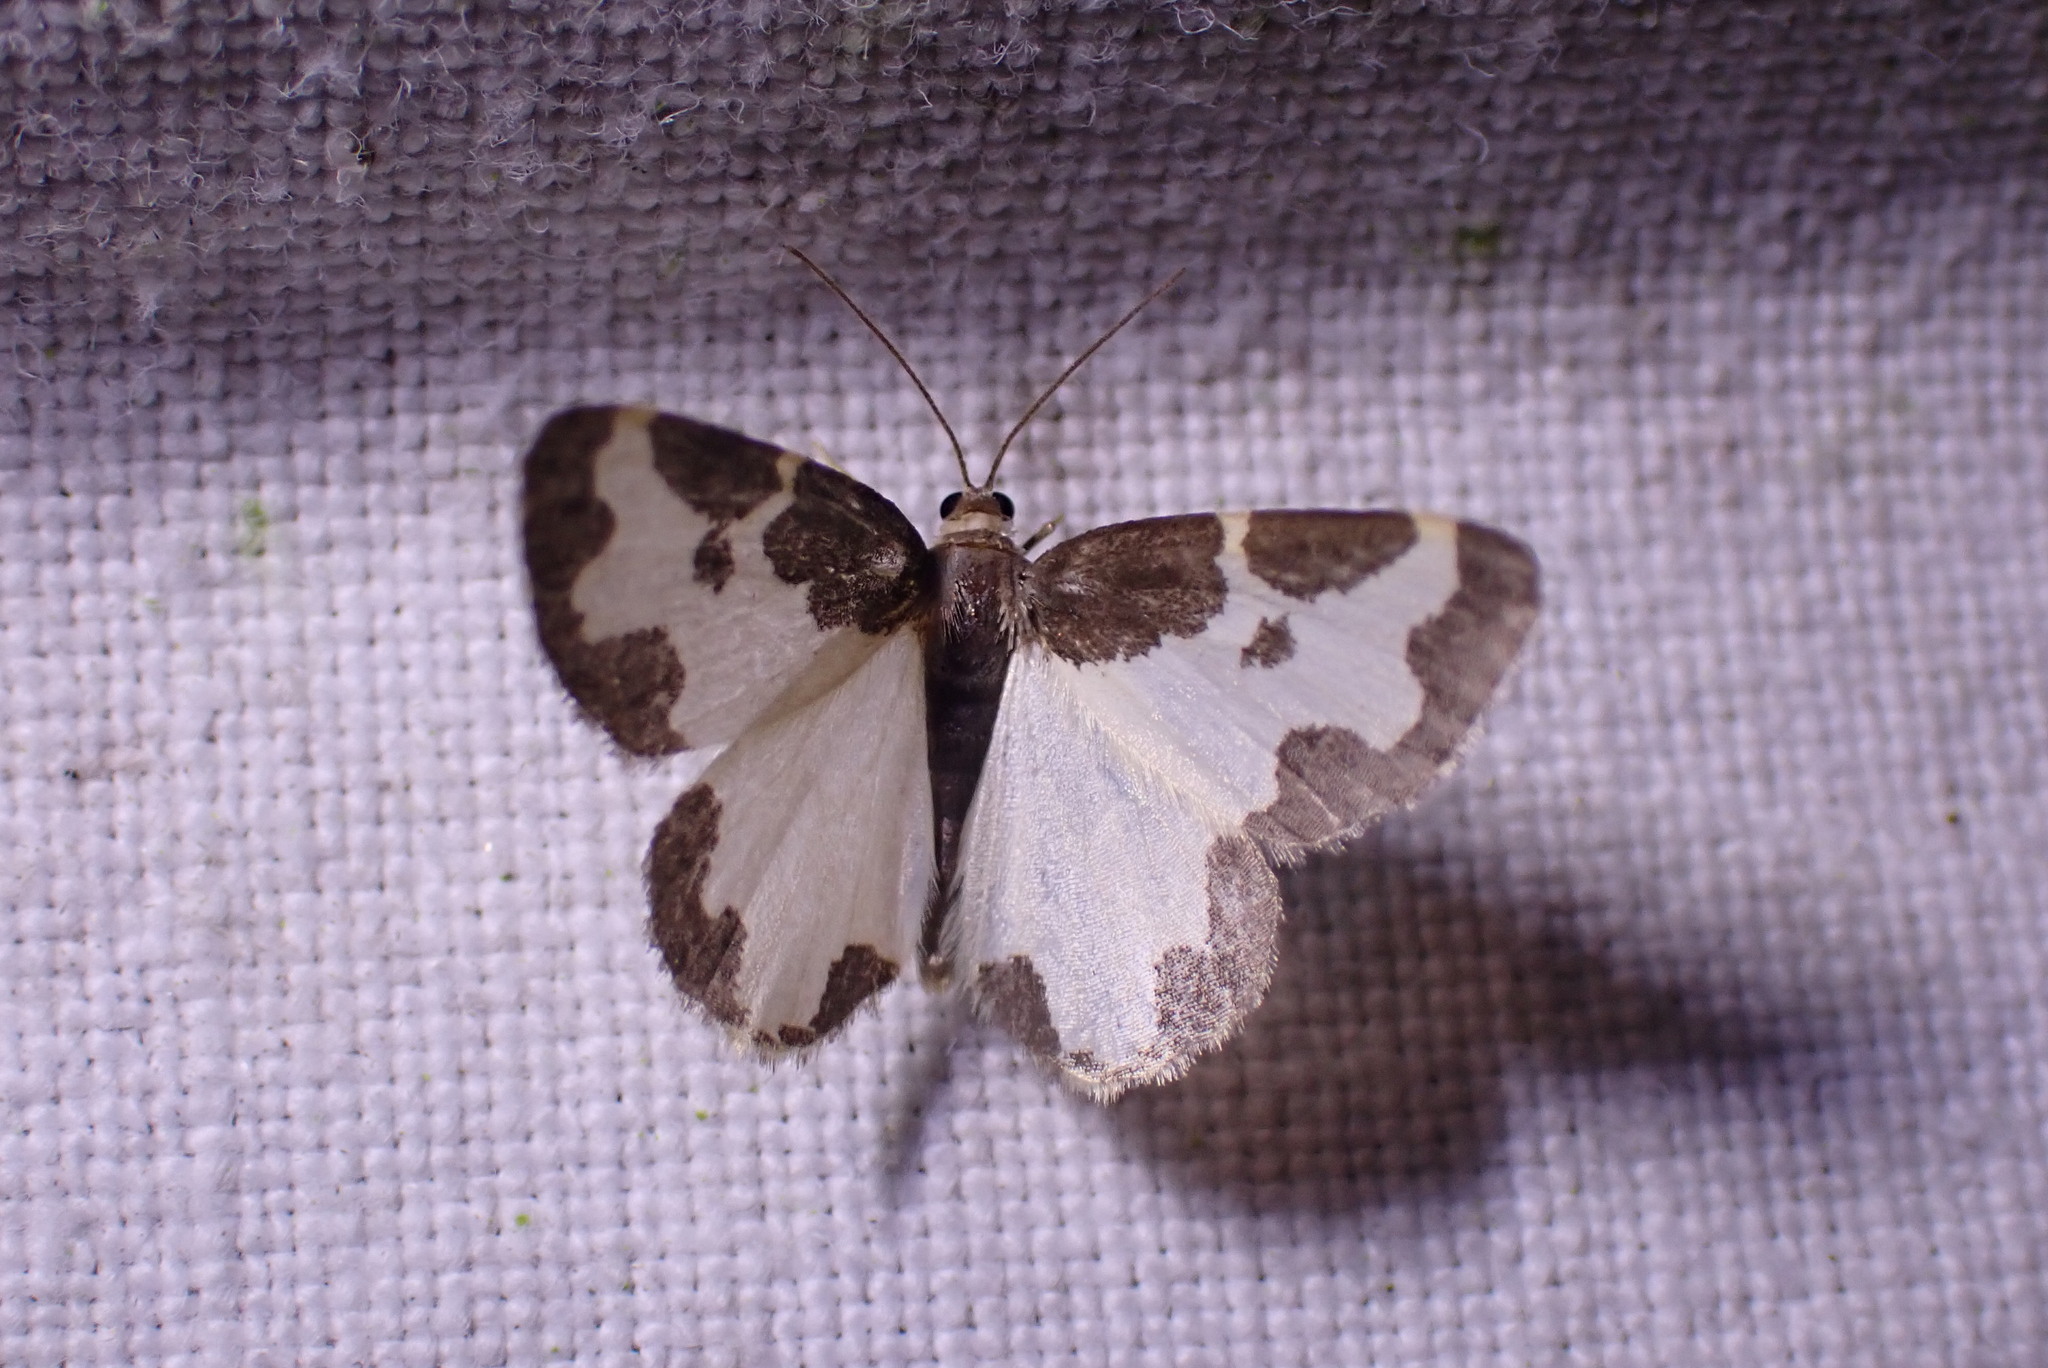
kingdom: Animalia
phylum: Arthropoda
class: Insecta
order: Lepidoptera
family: Geometridae
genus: Lomaspilis
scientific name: Lomaspilis marginata
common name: Clouded border
